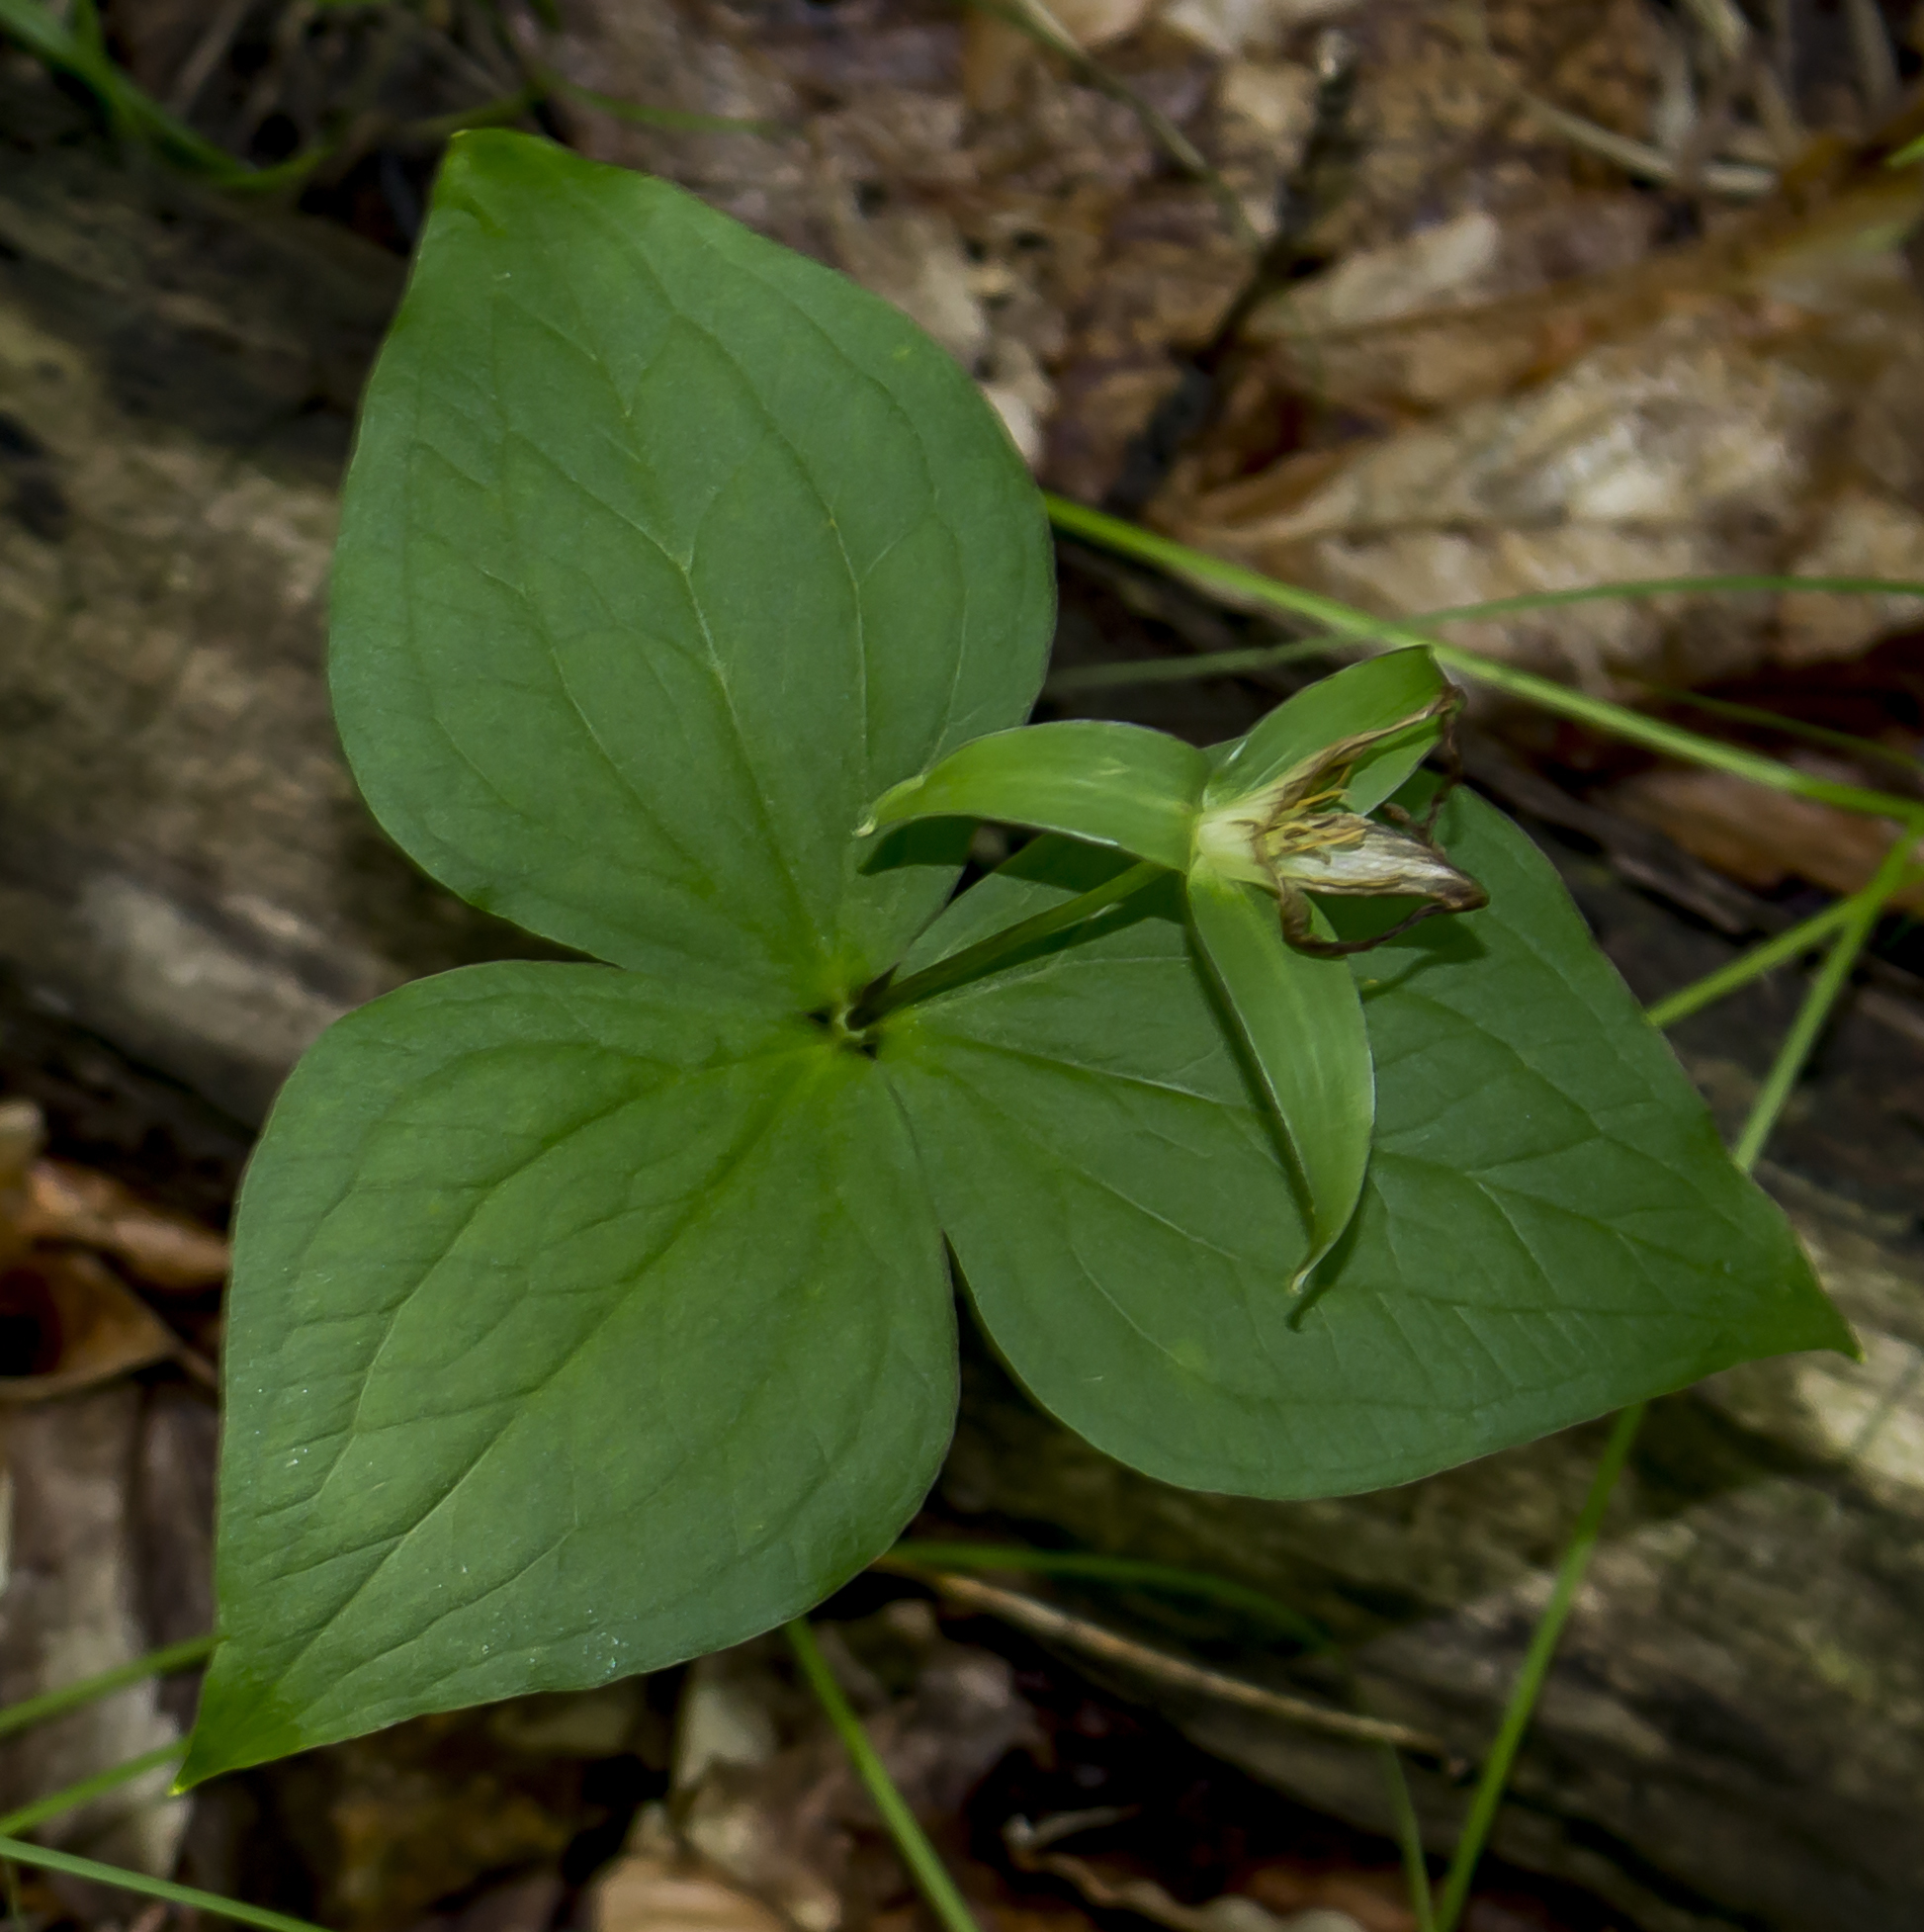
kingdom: Plantae
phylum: Tracheophyta
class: Liliopsida
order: Liliales
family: Melanthiaceae
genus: Trillium
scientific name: Trillium grandiflorum
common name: Great white trillium
